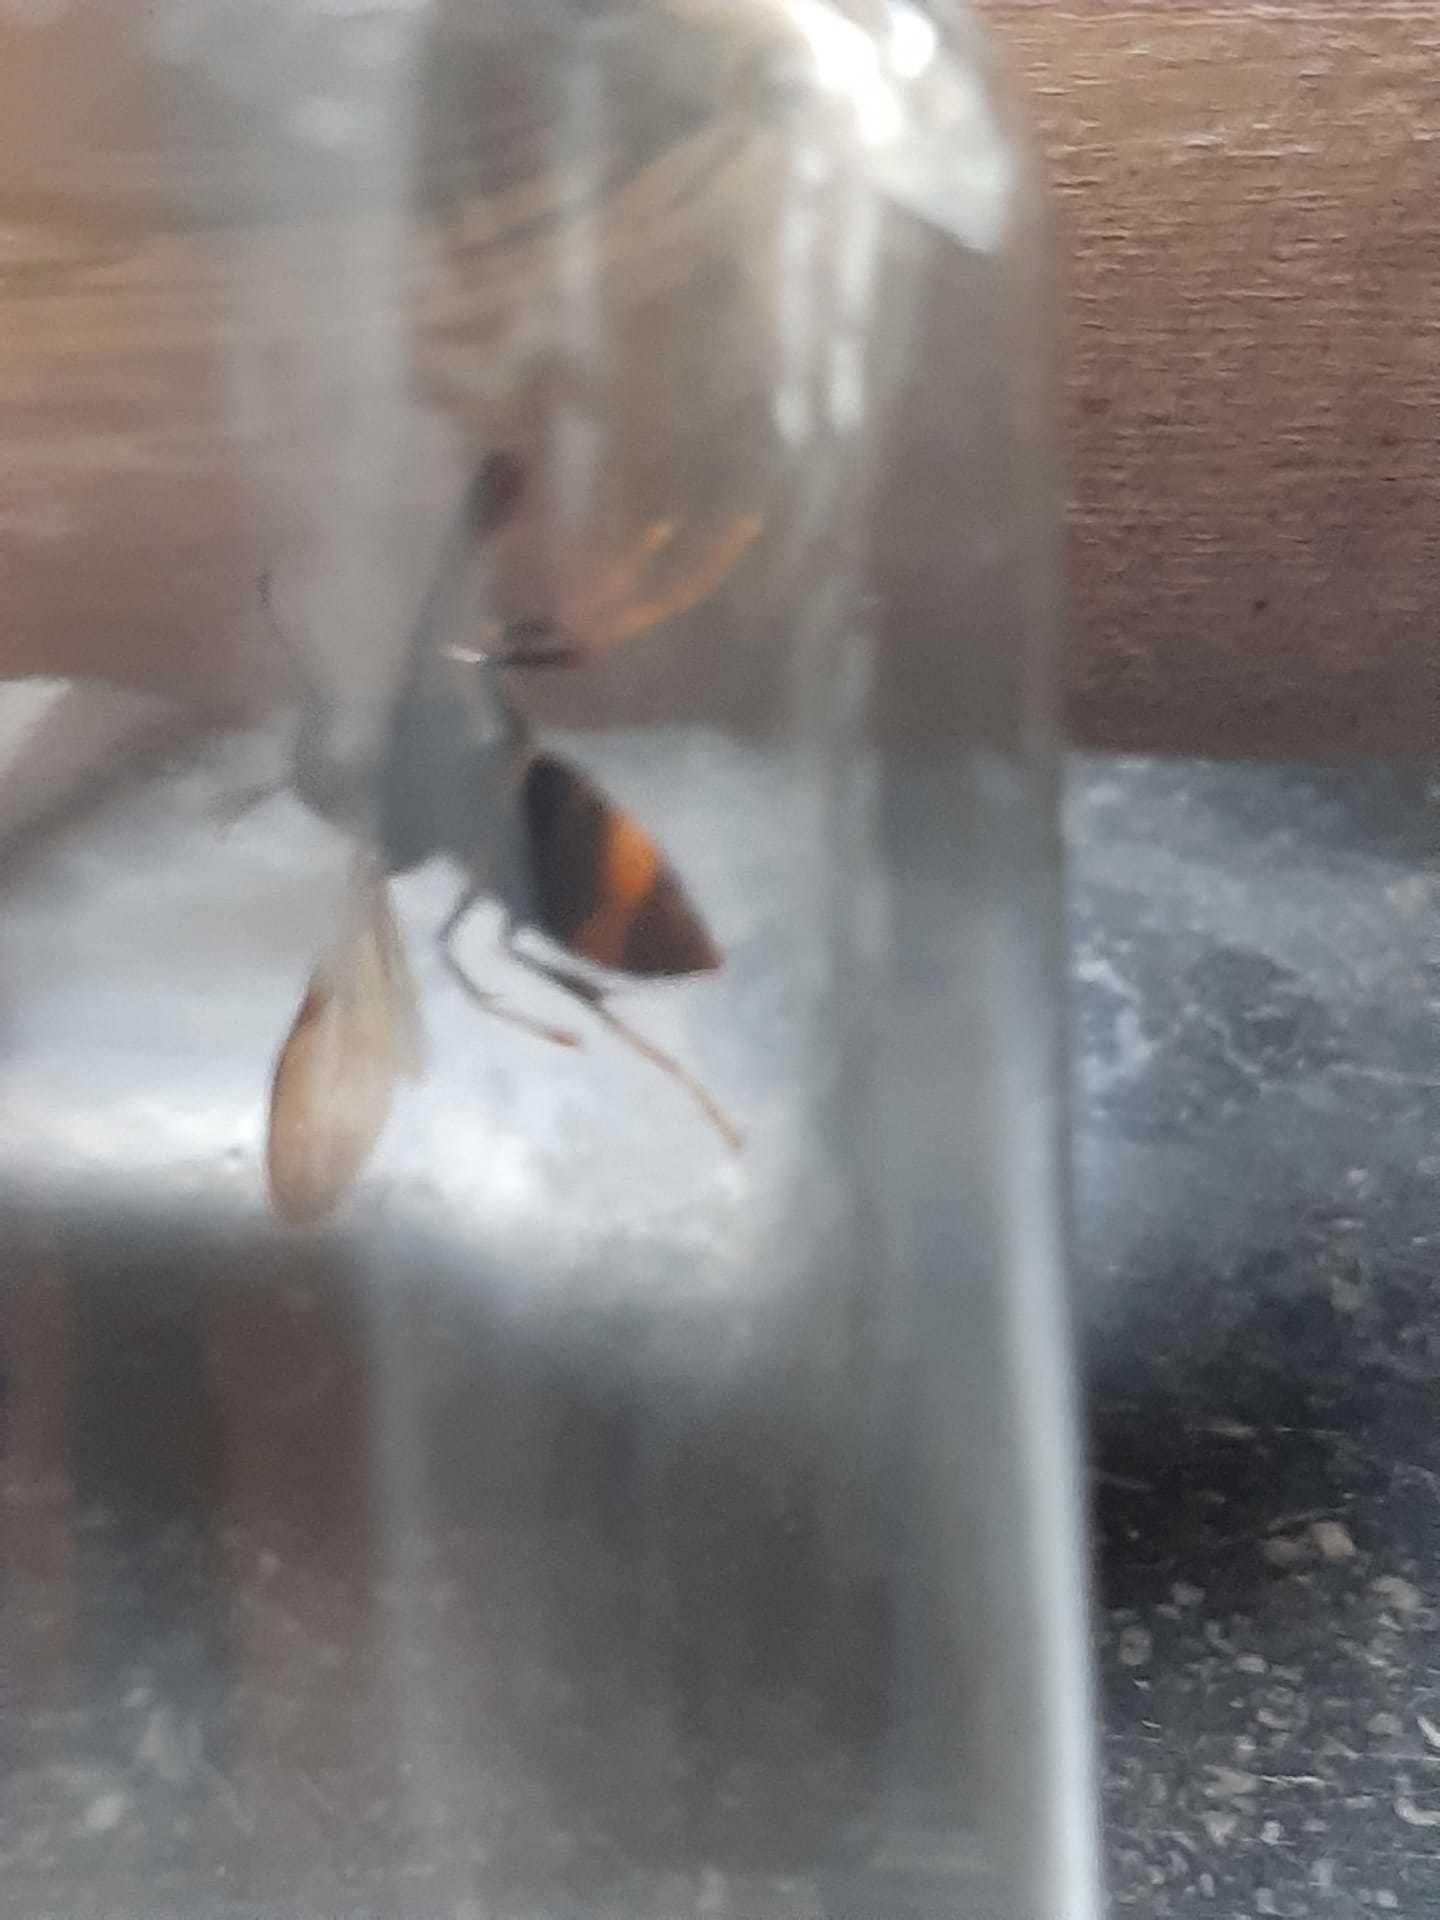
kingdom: Animalia
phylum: Arthropoda
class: Insecta
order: Hymenoptera
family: Vespidae
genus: Vespa
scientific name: Vespa velutina
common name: Asian hornet
